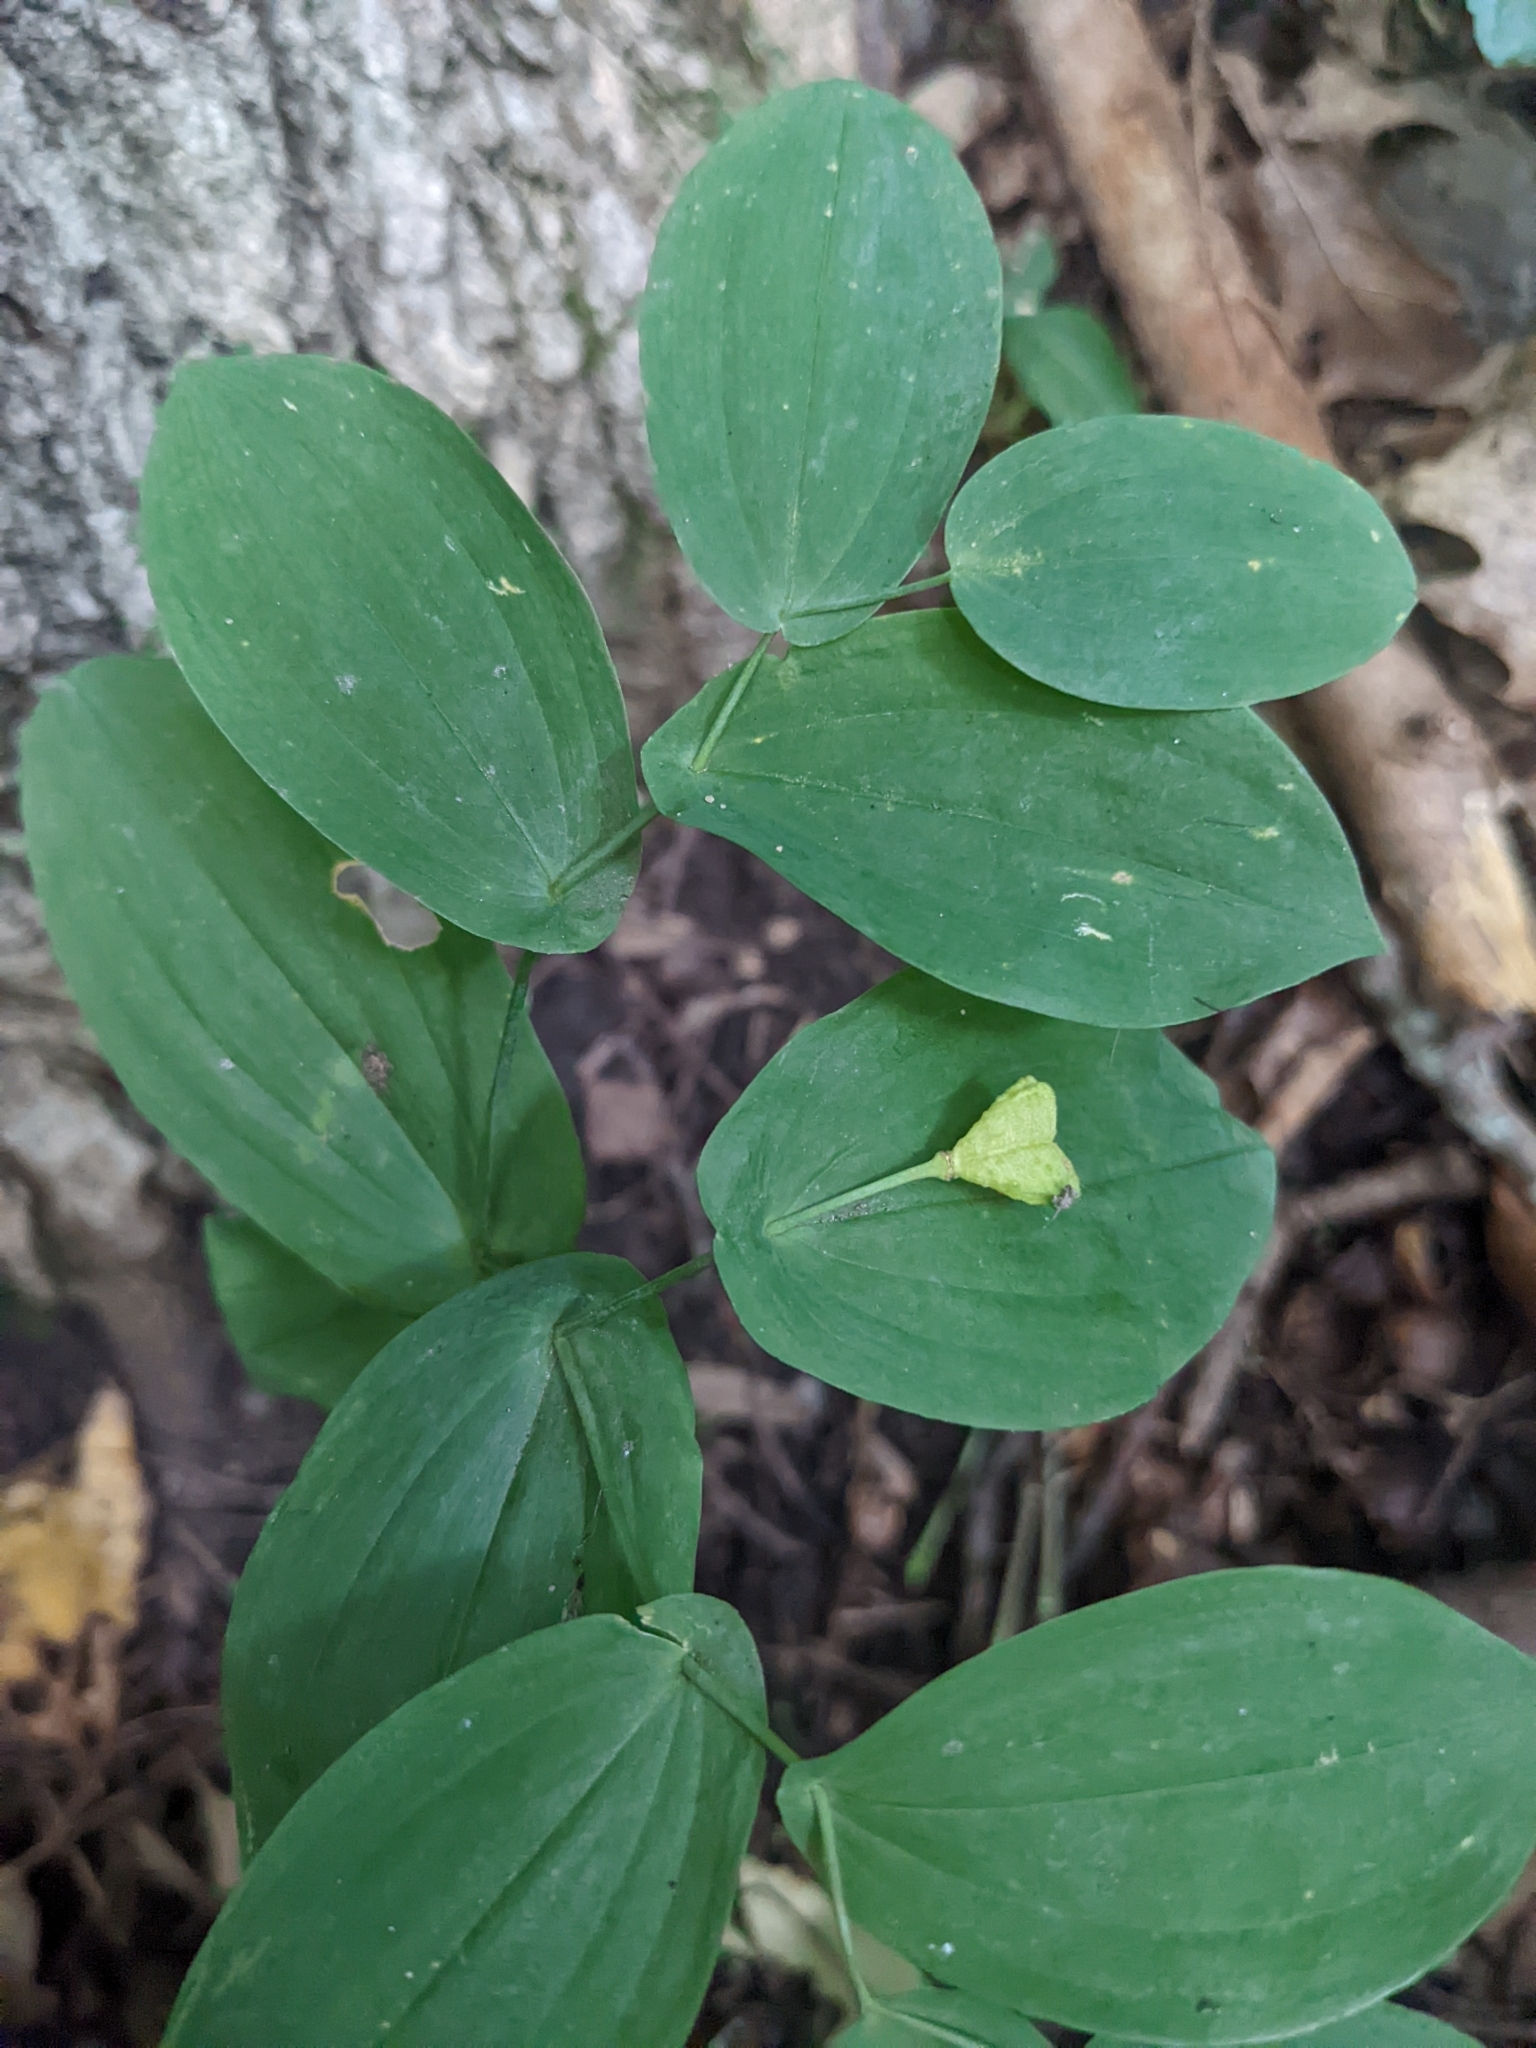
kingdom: Plantae
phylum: Tracheophyta
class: Liliopsida
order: Liliales
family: Colchicaceae
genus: Uvularia
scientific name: Uvularia perfoliata
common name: Perfoliate bellwort
